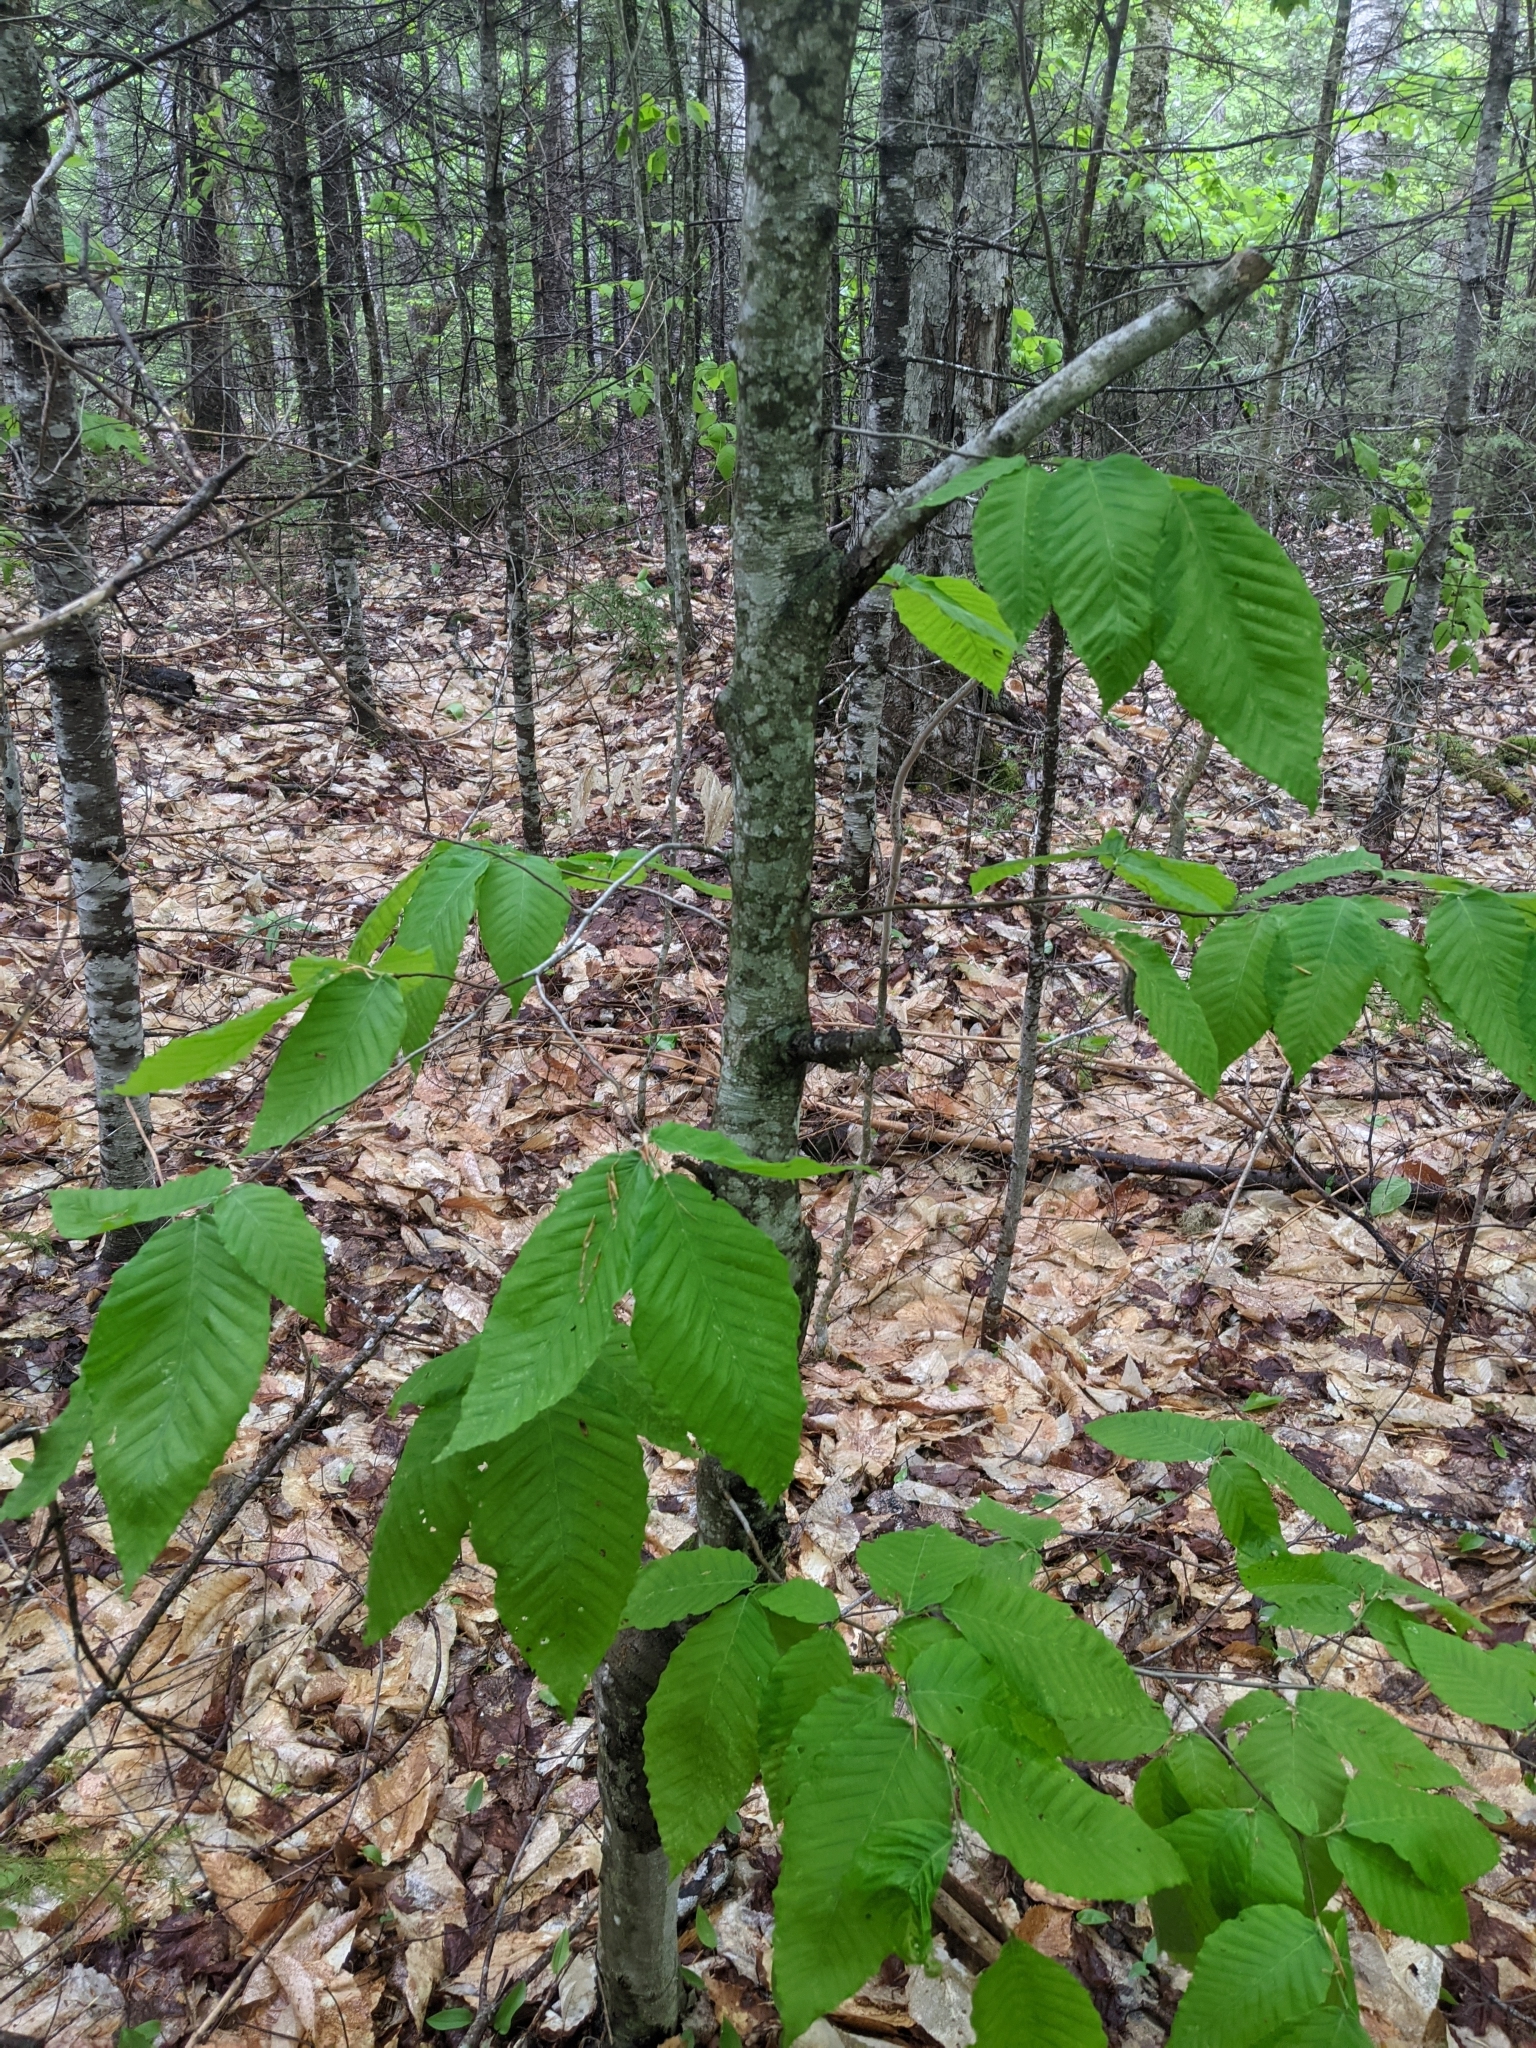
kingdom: Plantae
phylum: Tracheophyta
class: Magnoliopsida
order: Fagales
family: Fagaceae
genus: Fagus
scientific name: Fagus grandifolia
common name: American beech
